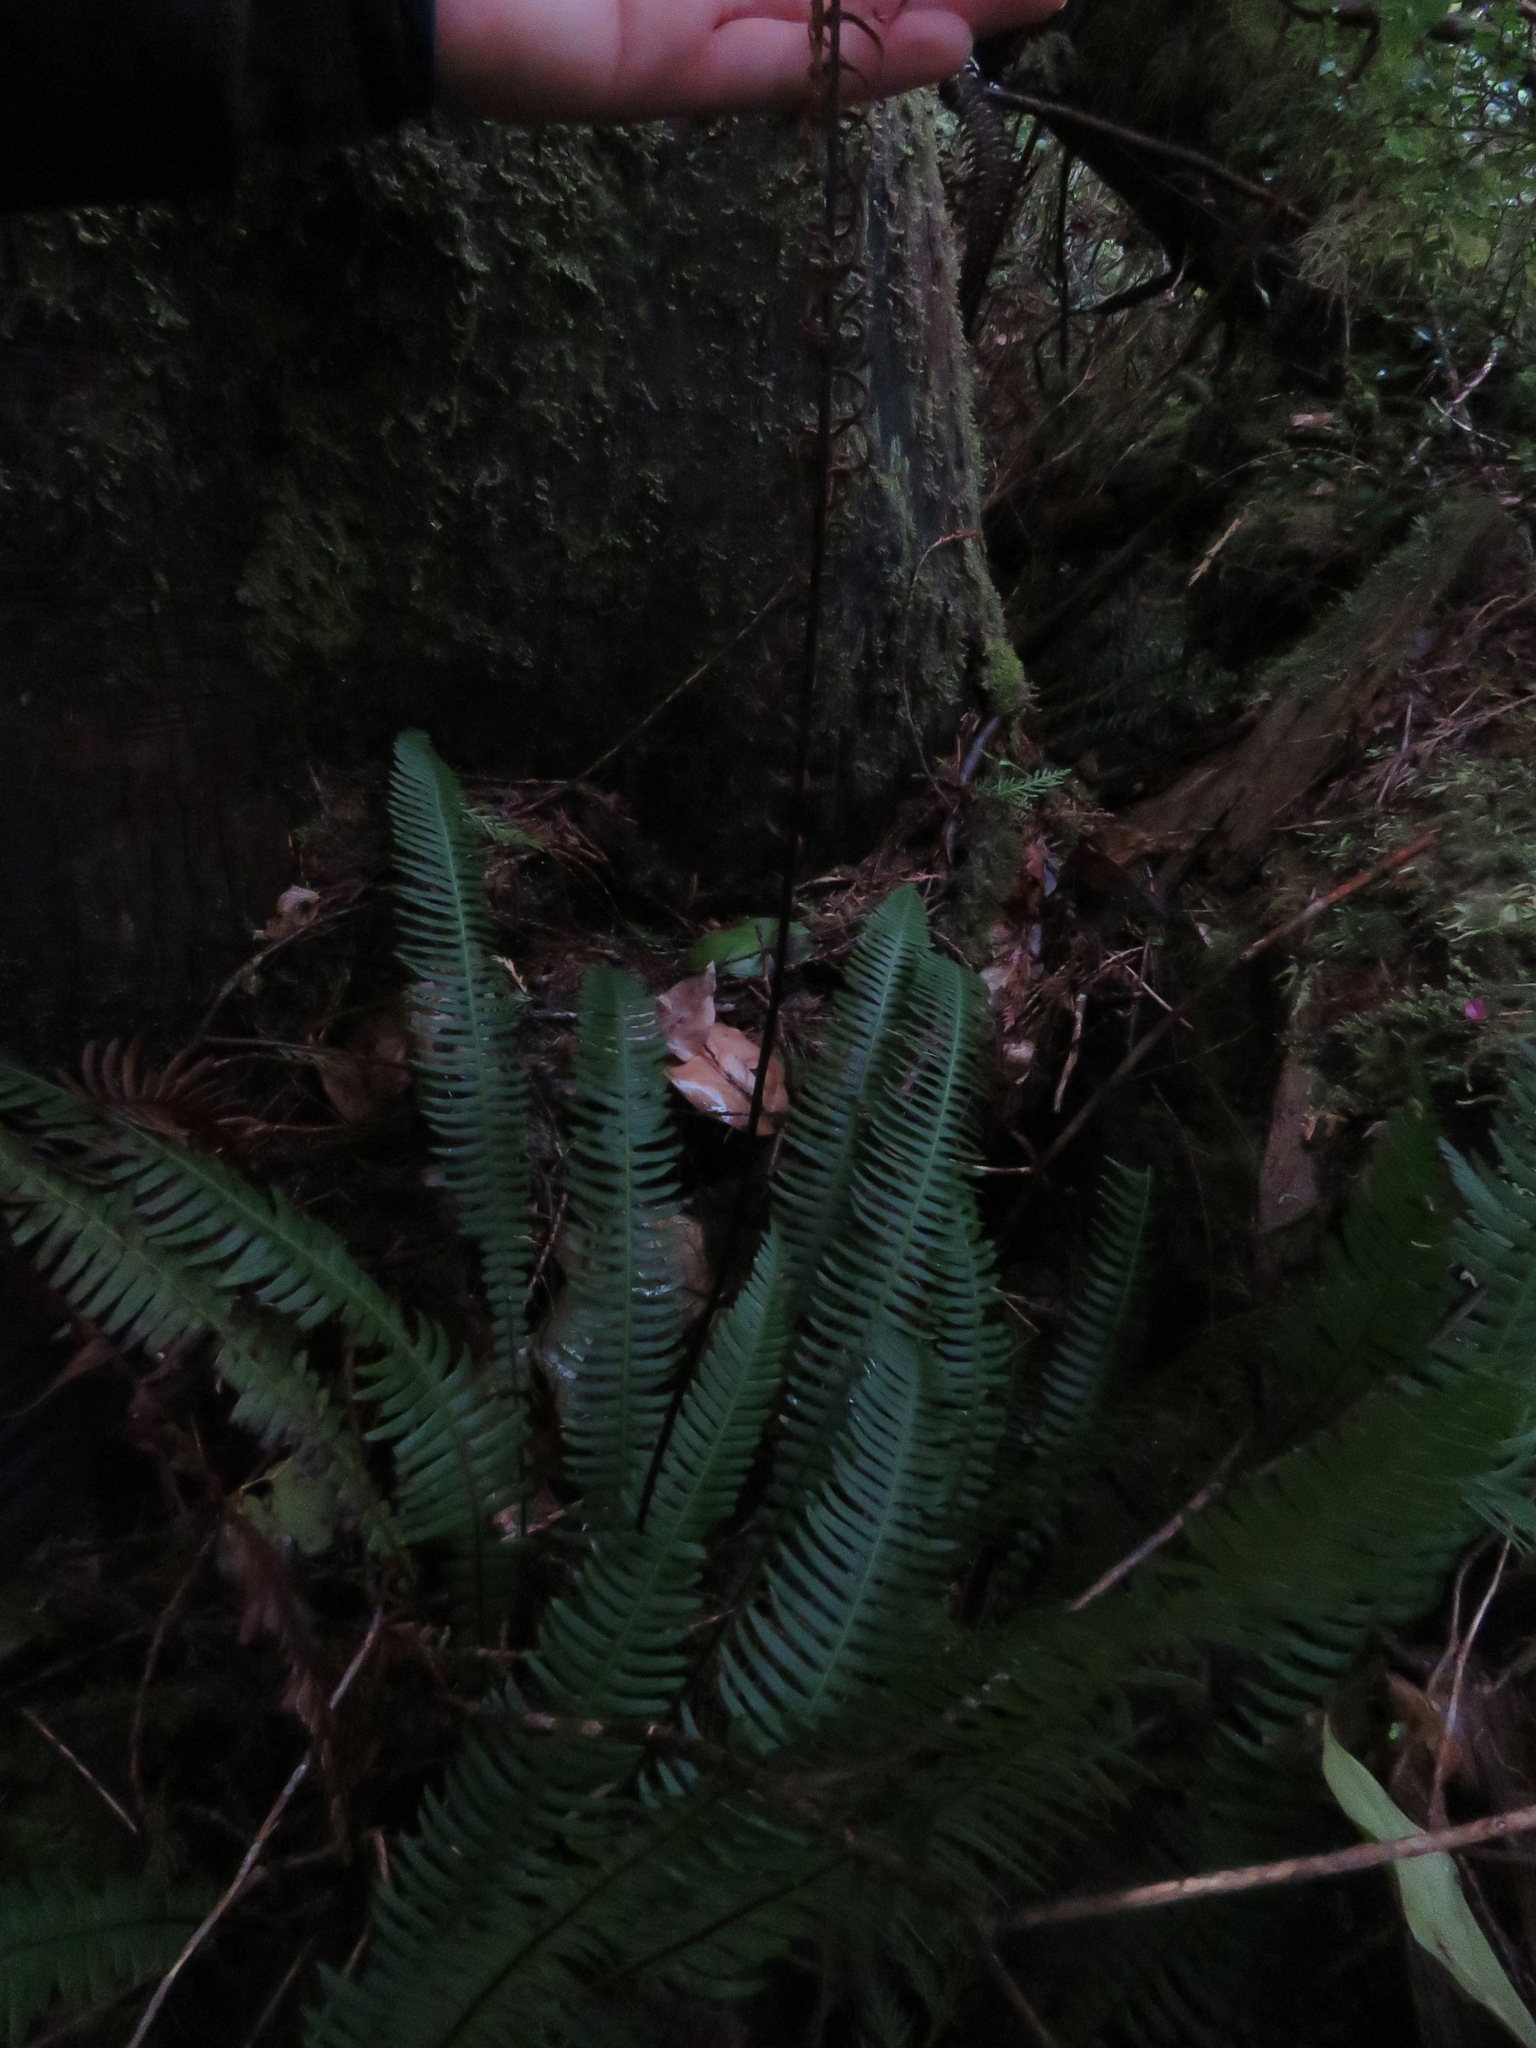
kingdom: Plantae
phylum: Tracheophyta
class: Polypodiopsida
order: Polypodiales
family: Blechnaceae
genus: Struthiopteris
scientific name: Struthiopteris spicant
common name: Deer fern
